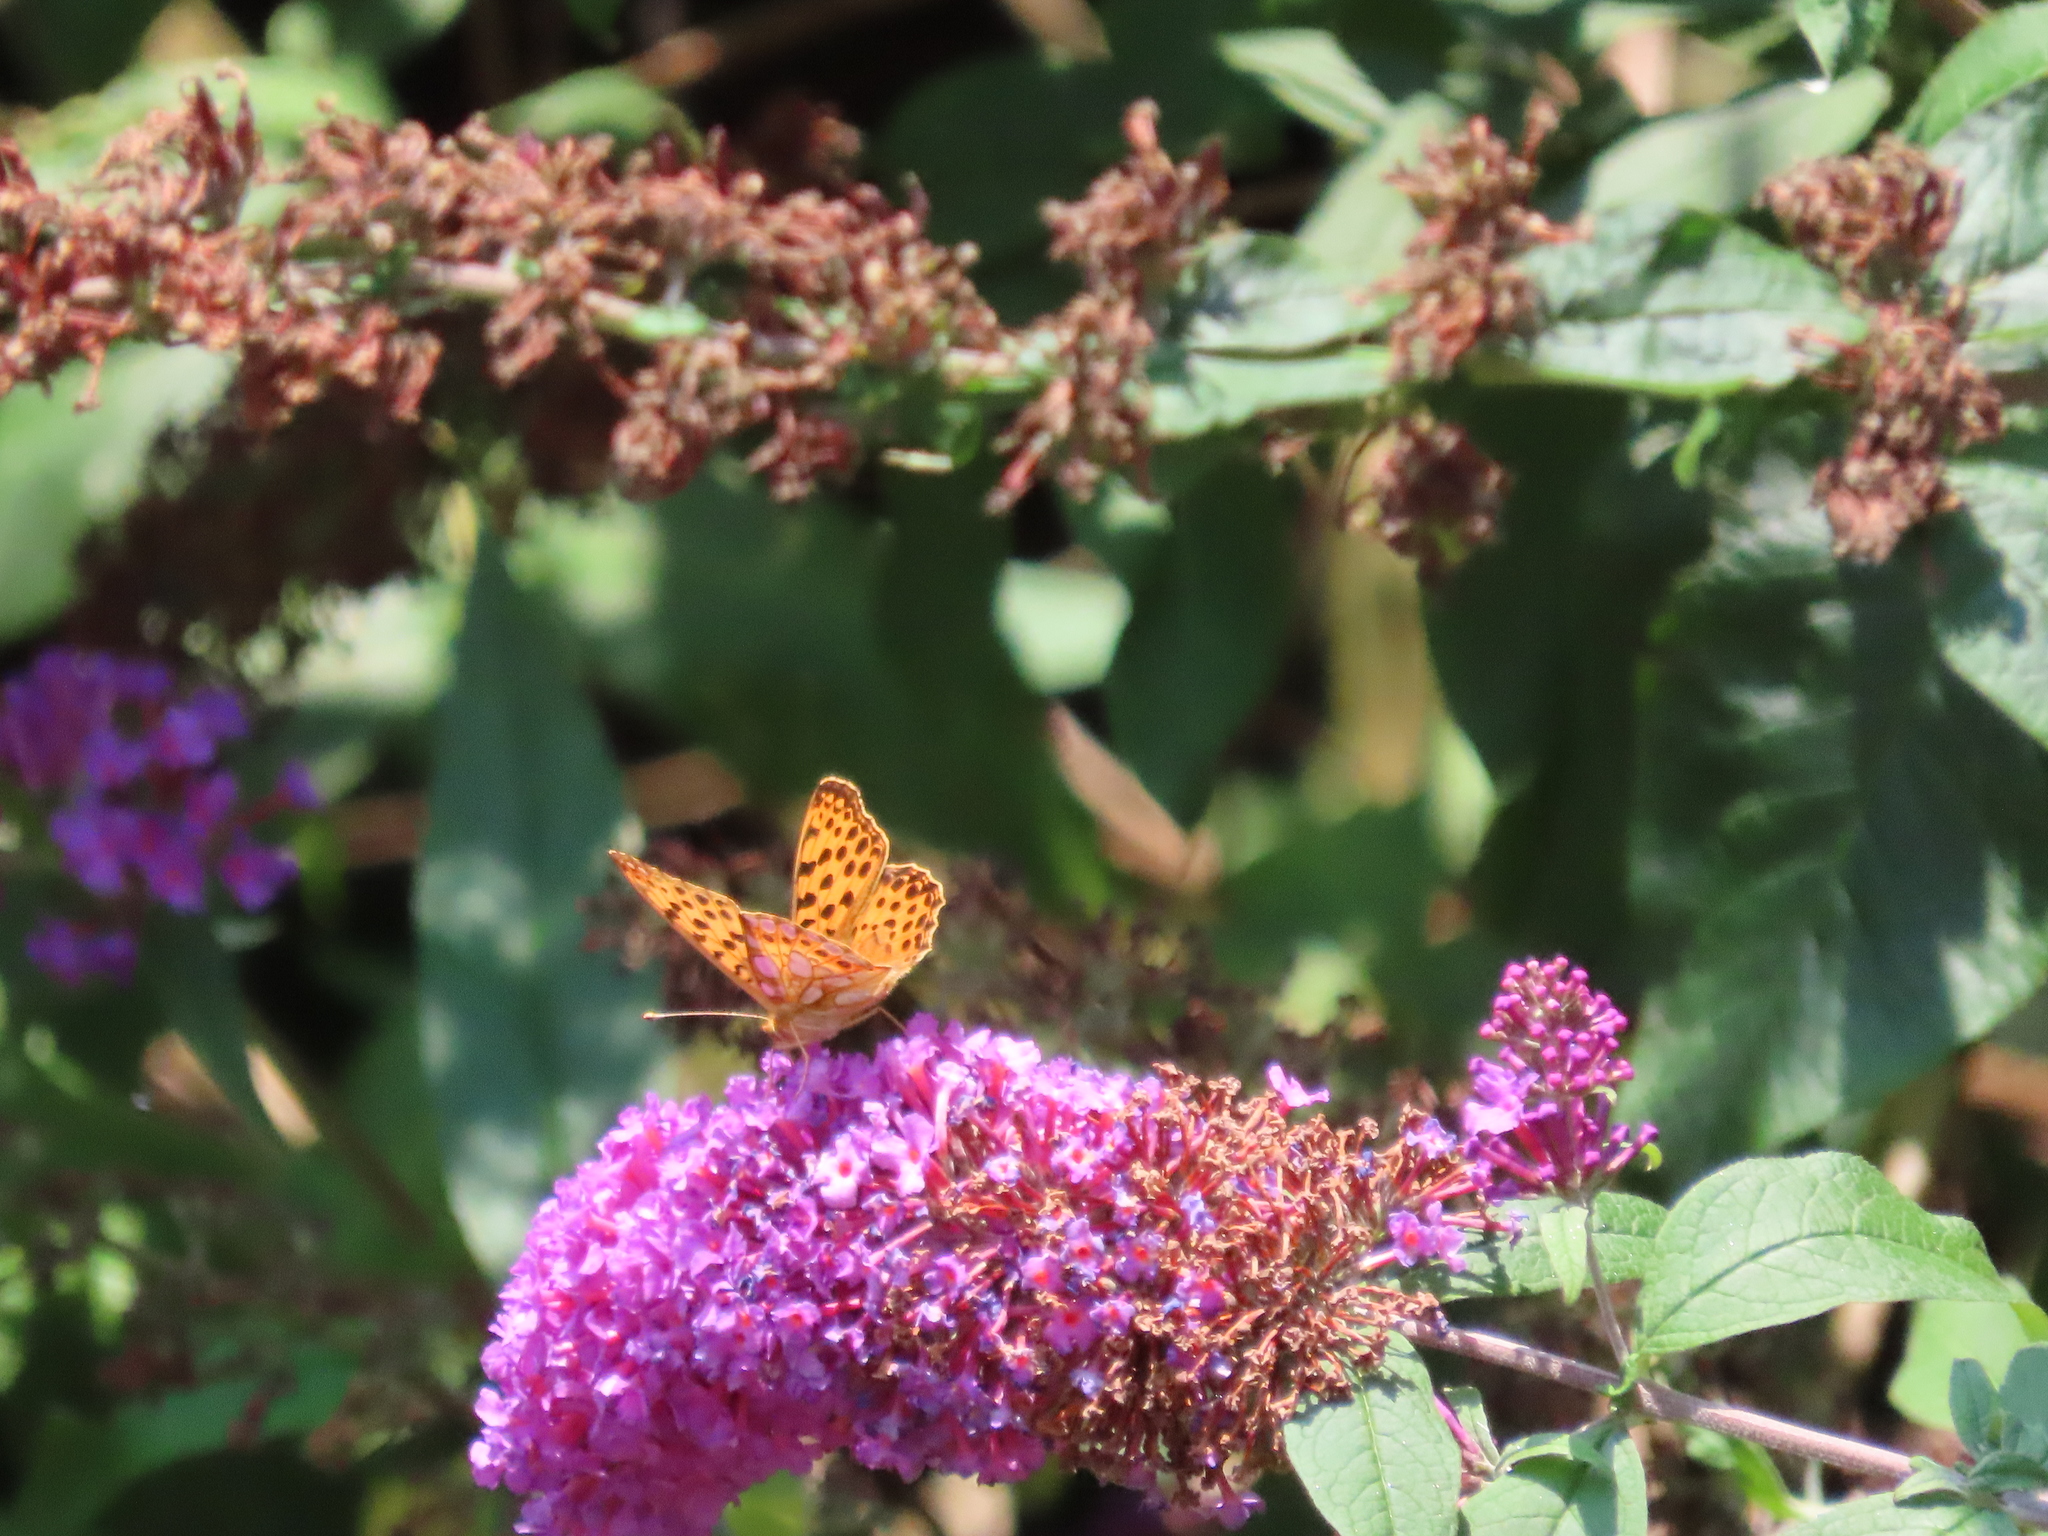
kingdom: Animalia
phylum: Arthropoda
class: Insecta
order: Lepidoptera
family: Nymphalidae
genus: Issoria
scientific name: Issoria lathonia
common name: Queen of spain fritillary
